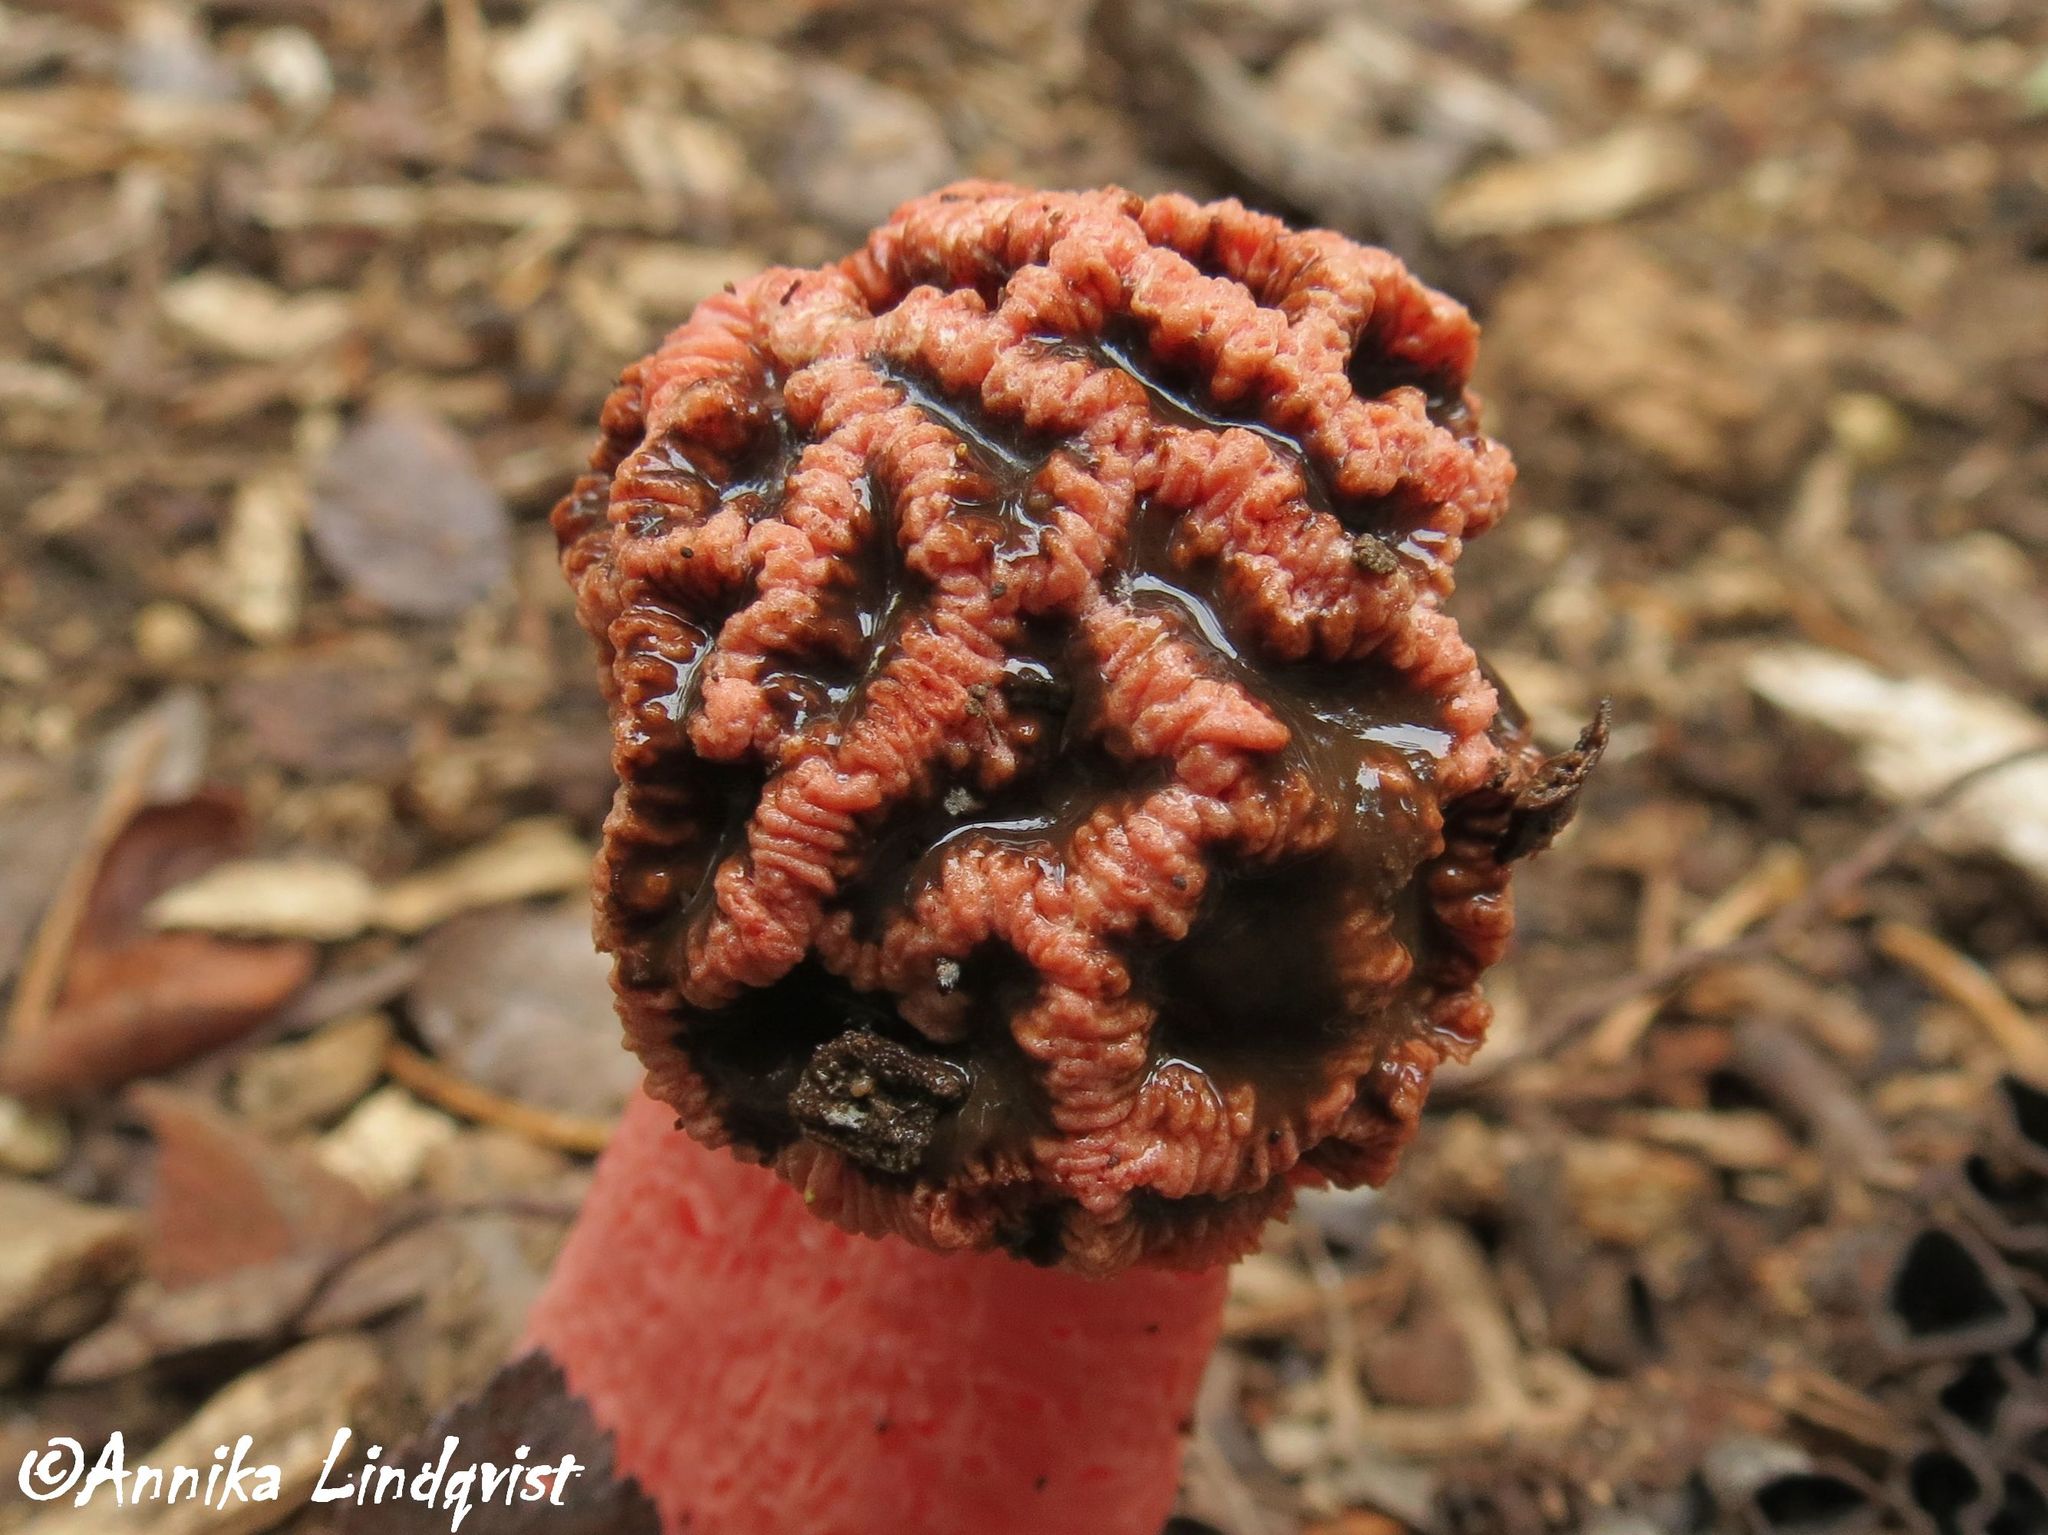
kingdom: Fungi
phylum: Basidiomycota
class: Agaricomycetes
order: Phallales
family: Phallaceae
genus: Lysurus
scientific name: Lysurus periphragmoides
